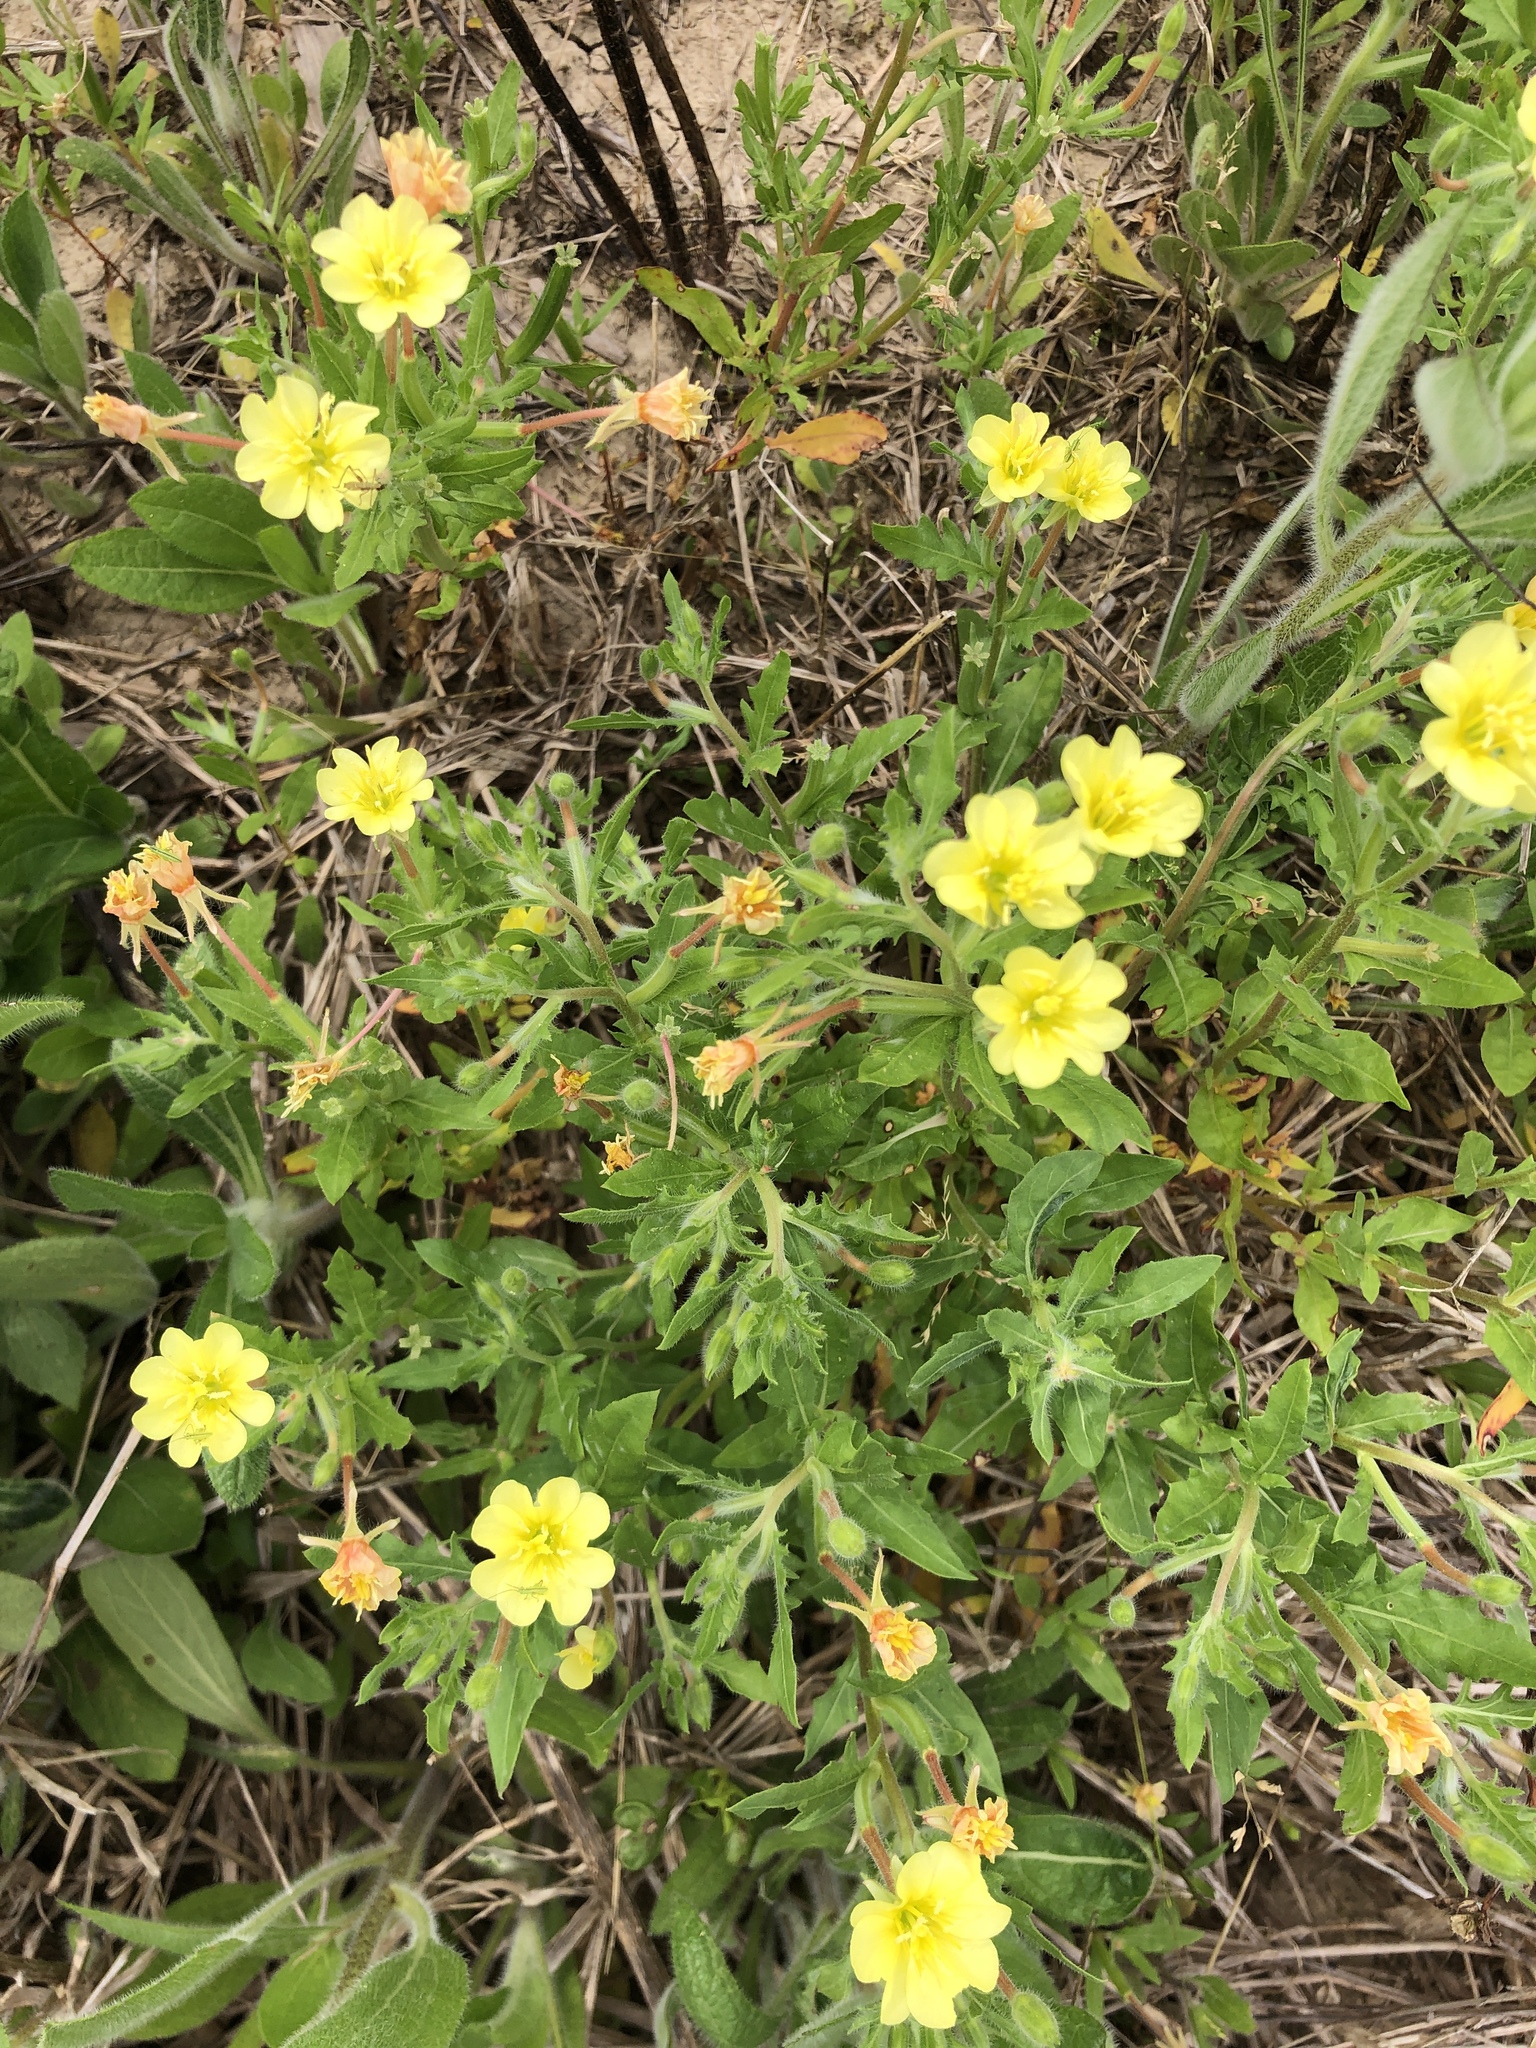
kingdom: Plantae
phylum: Tracheophyta
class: Magnoliopsida
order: Myrtales
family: Onagraceae
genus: Oenothera
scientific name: Oenothera laciniata
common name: Cut-leaved evening-primrose
